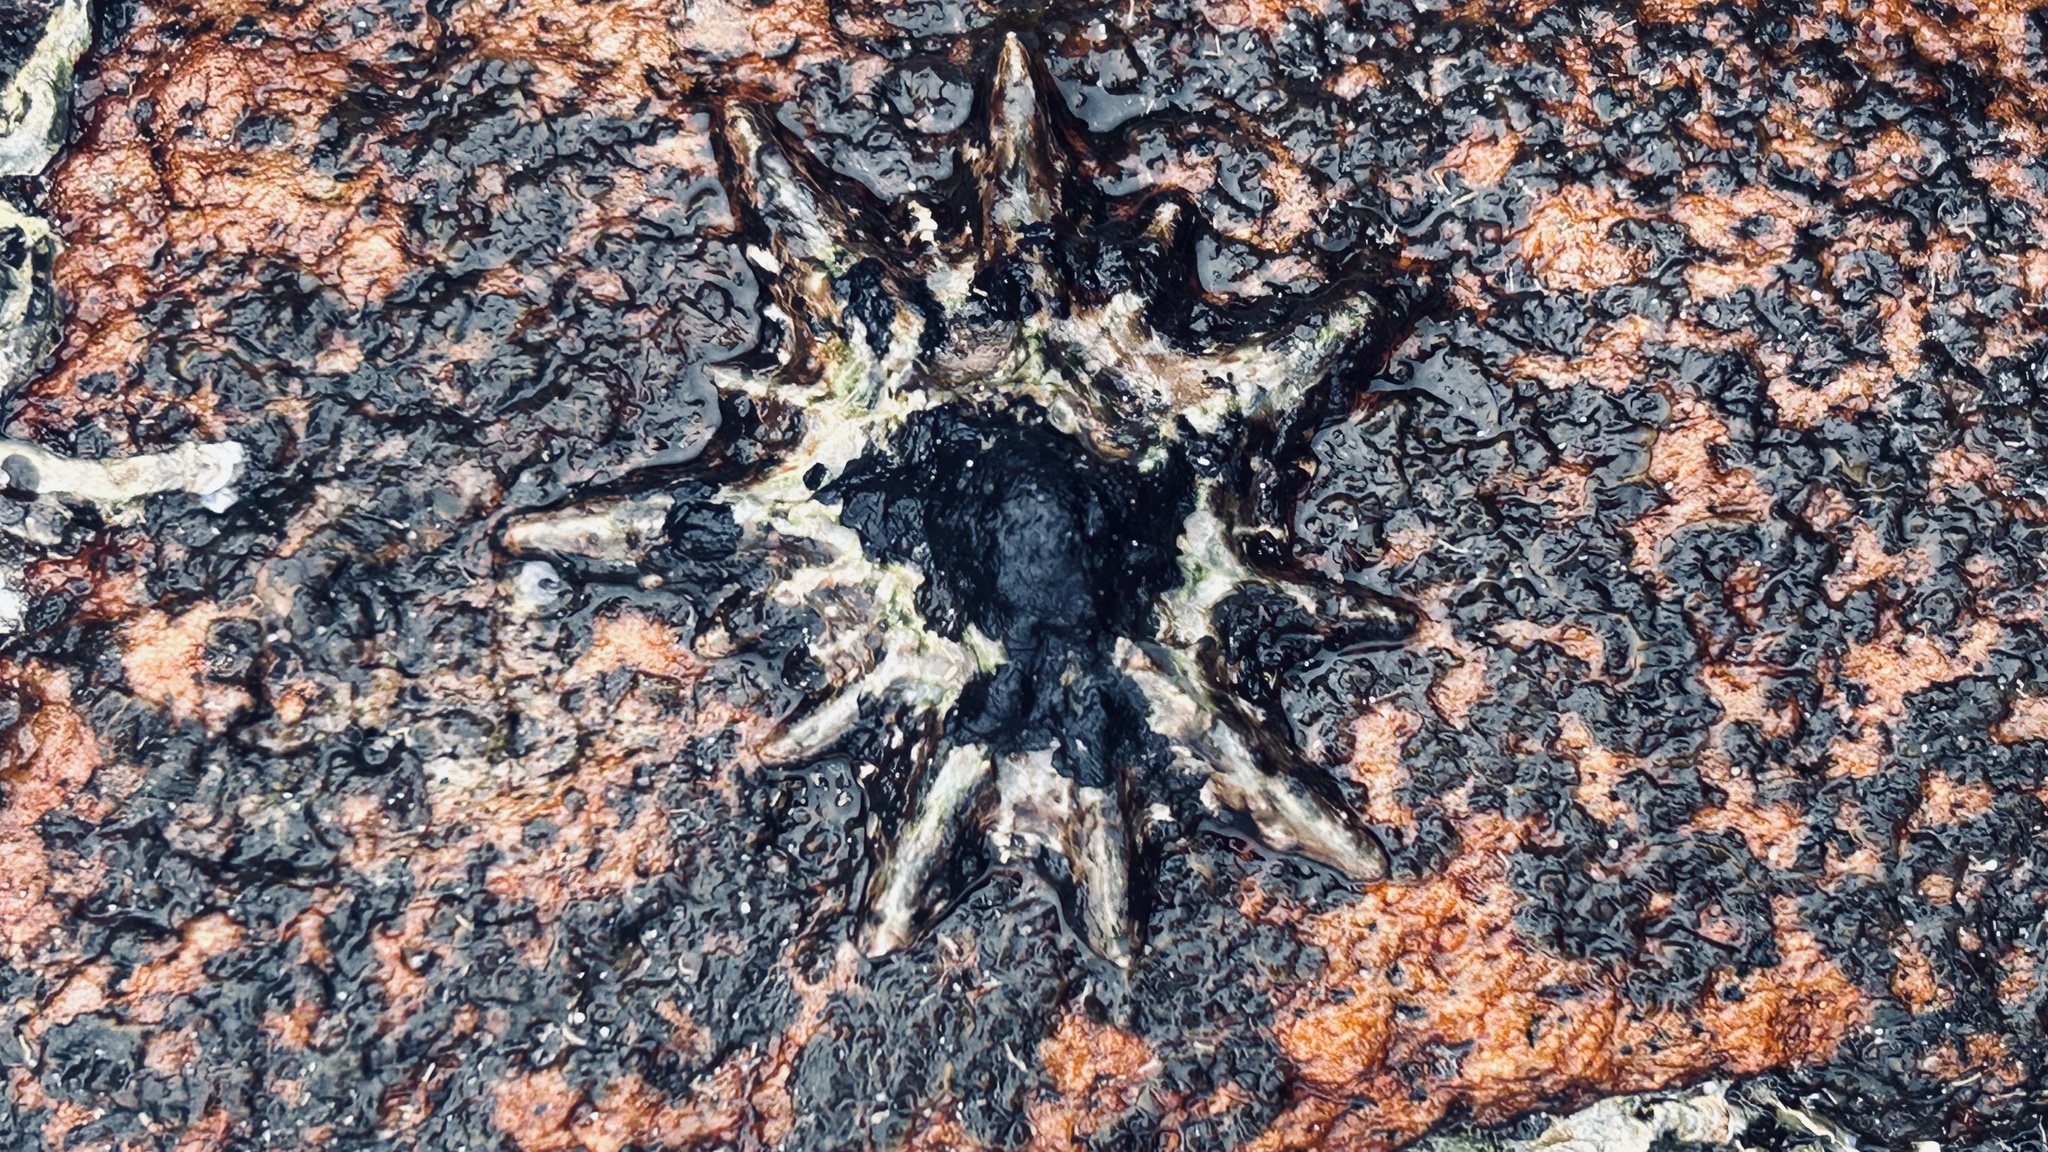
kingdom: Animalia
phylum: Mollusca
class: Gastropoda
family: Patellidae
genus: Scutellastra
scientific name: Scutellastra longicosta
